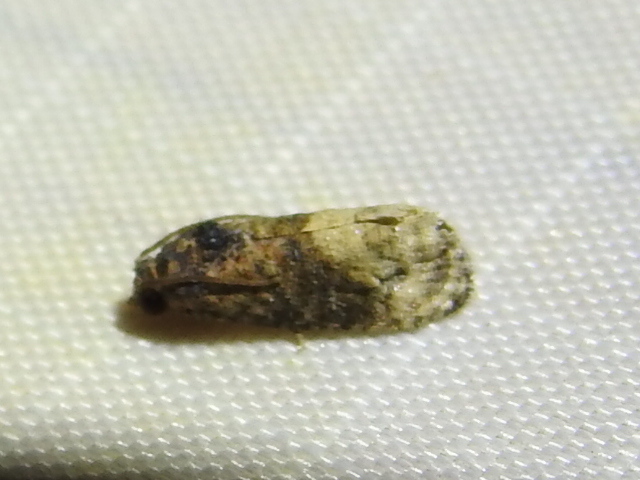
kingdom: Animalia
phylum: Arthropoda
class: Insecta
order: Lepidoptera
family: Tortricidae
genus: Ecdytolopha
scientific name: Ecdytolopha mana
